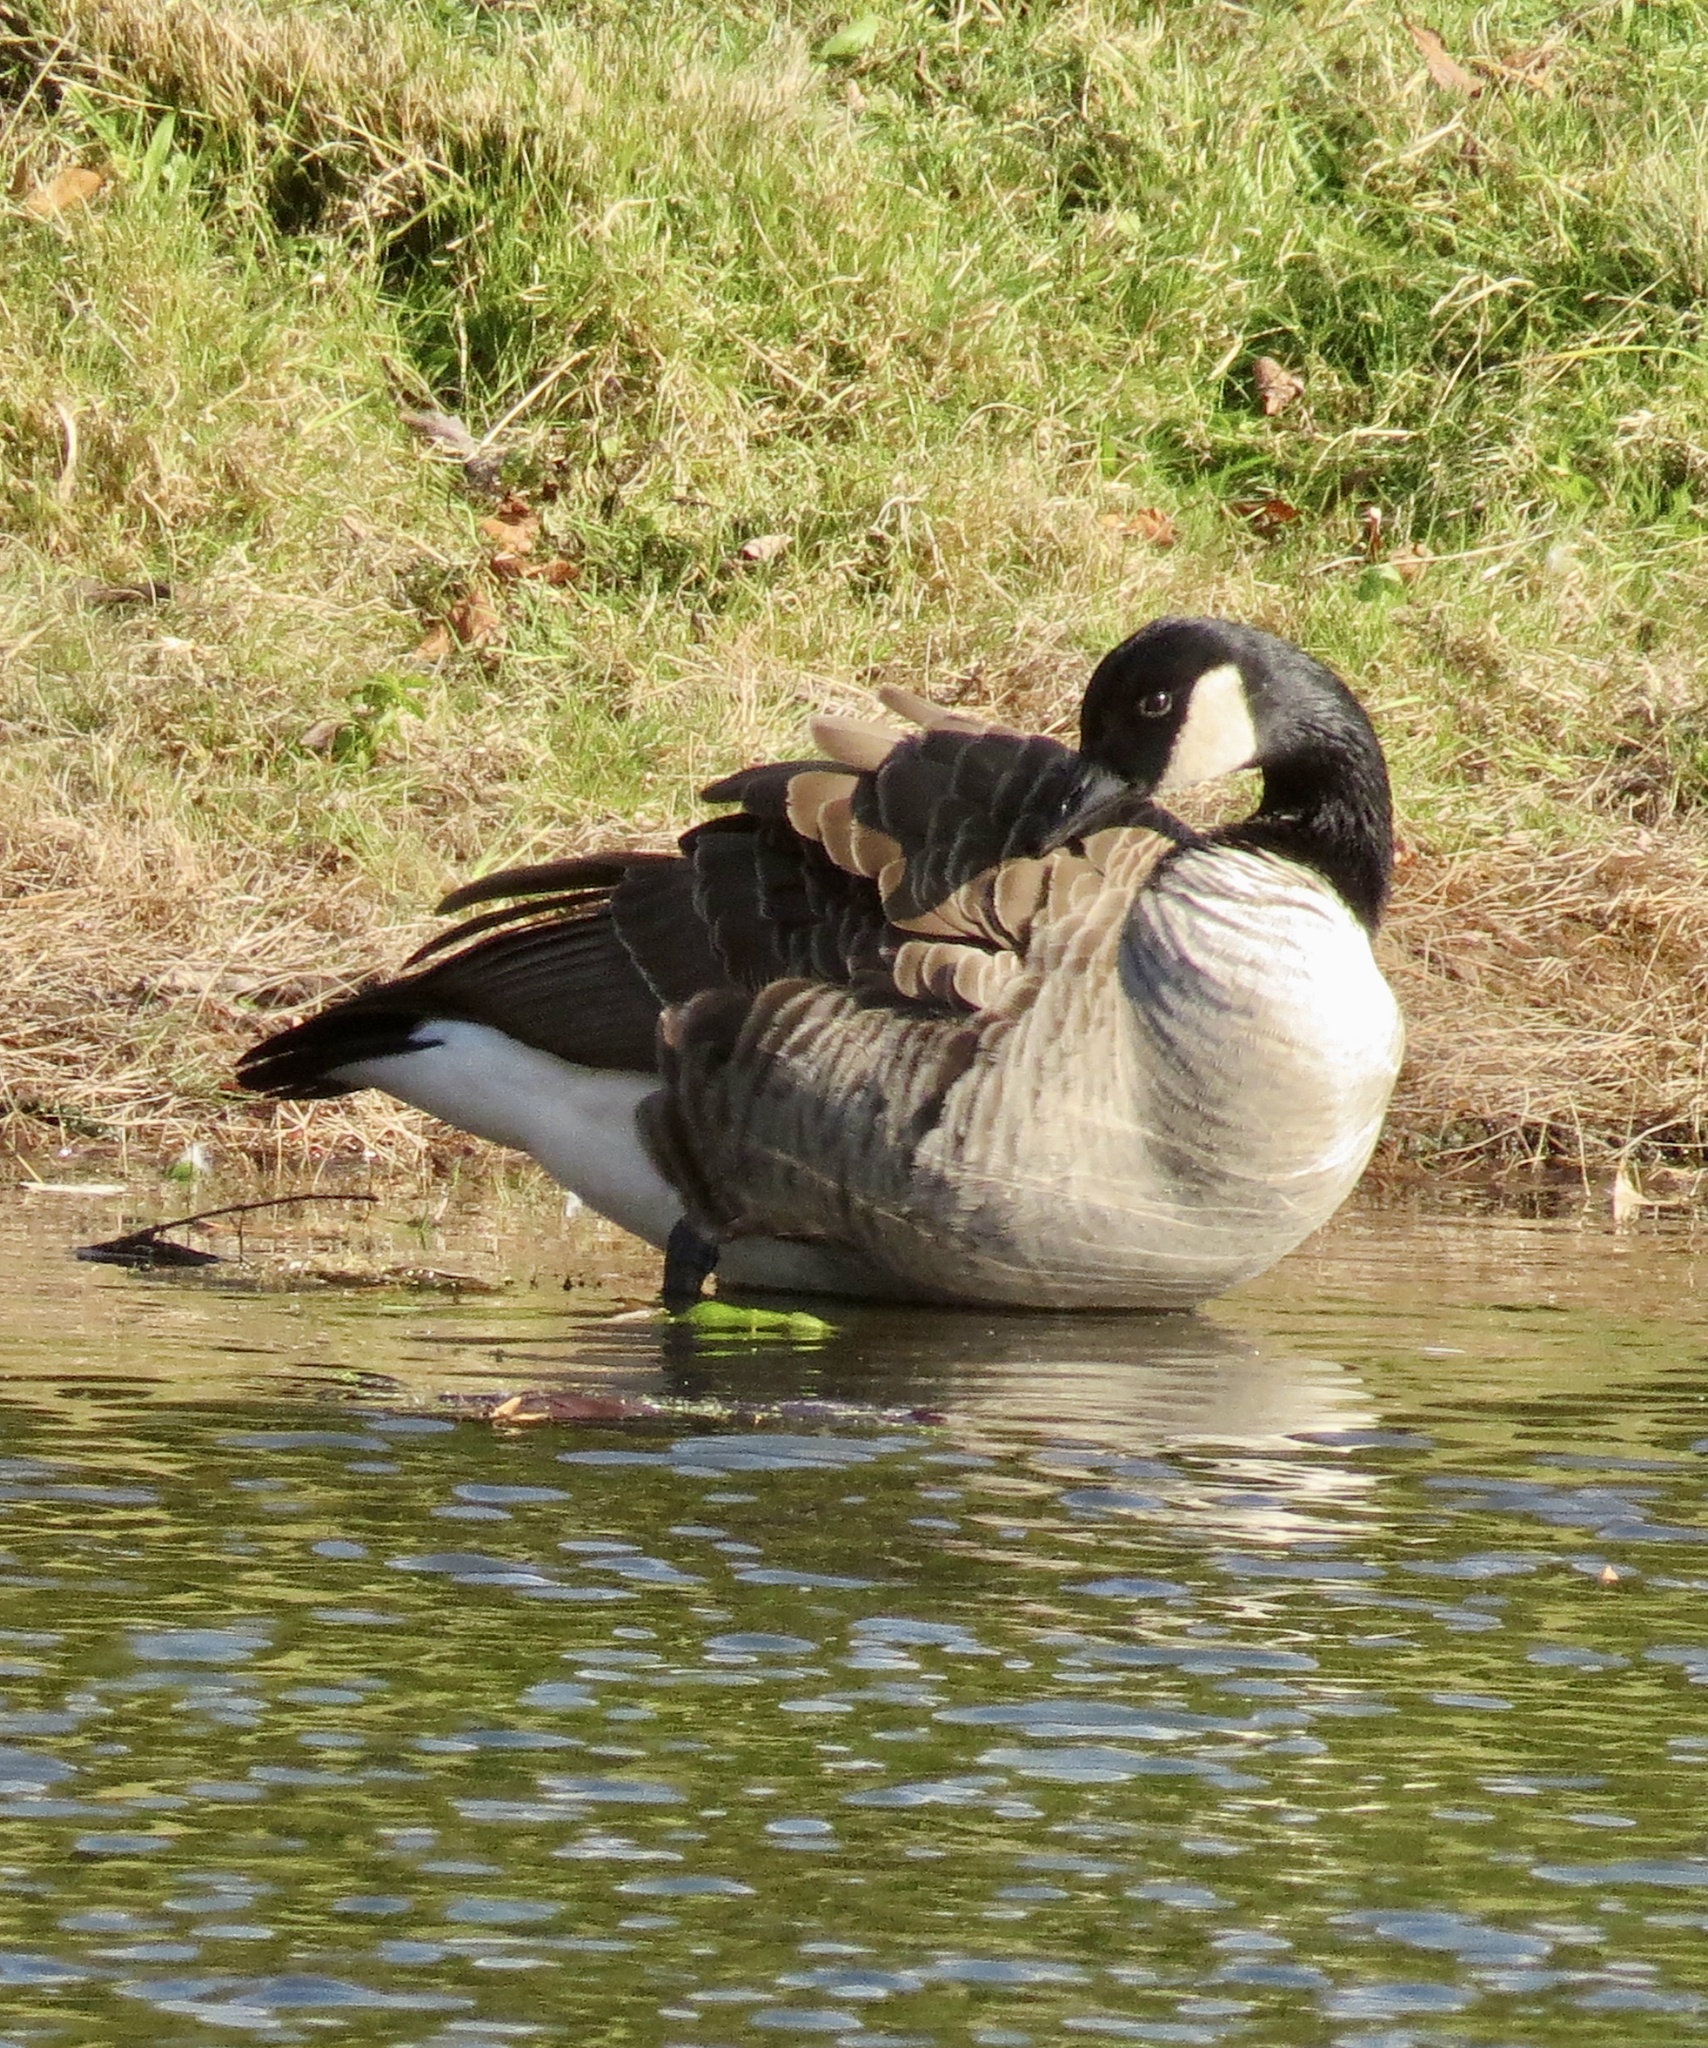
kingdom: Animalia
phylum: Chordata
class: Aves
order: Anseriformes
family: Anatidae
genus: Branta
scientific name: Branta canadensis
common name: Canada goose
